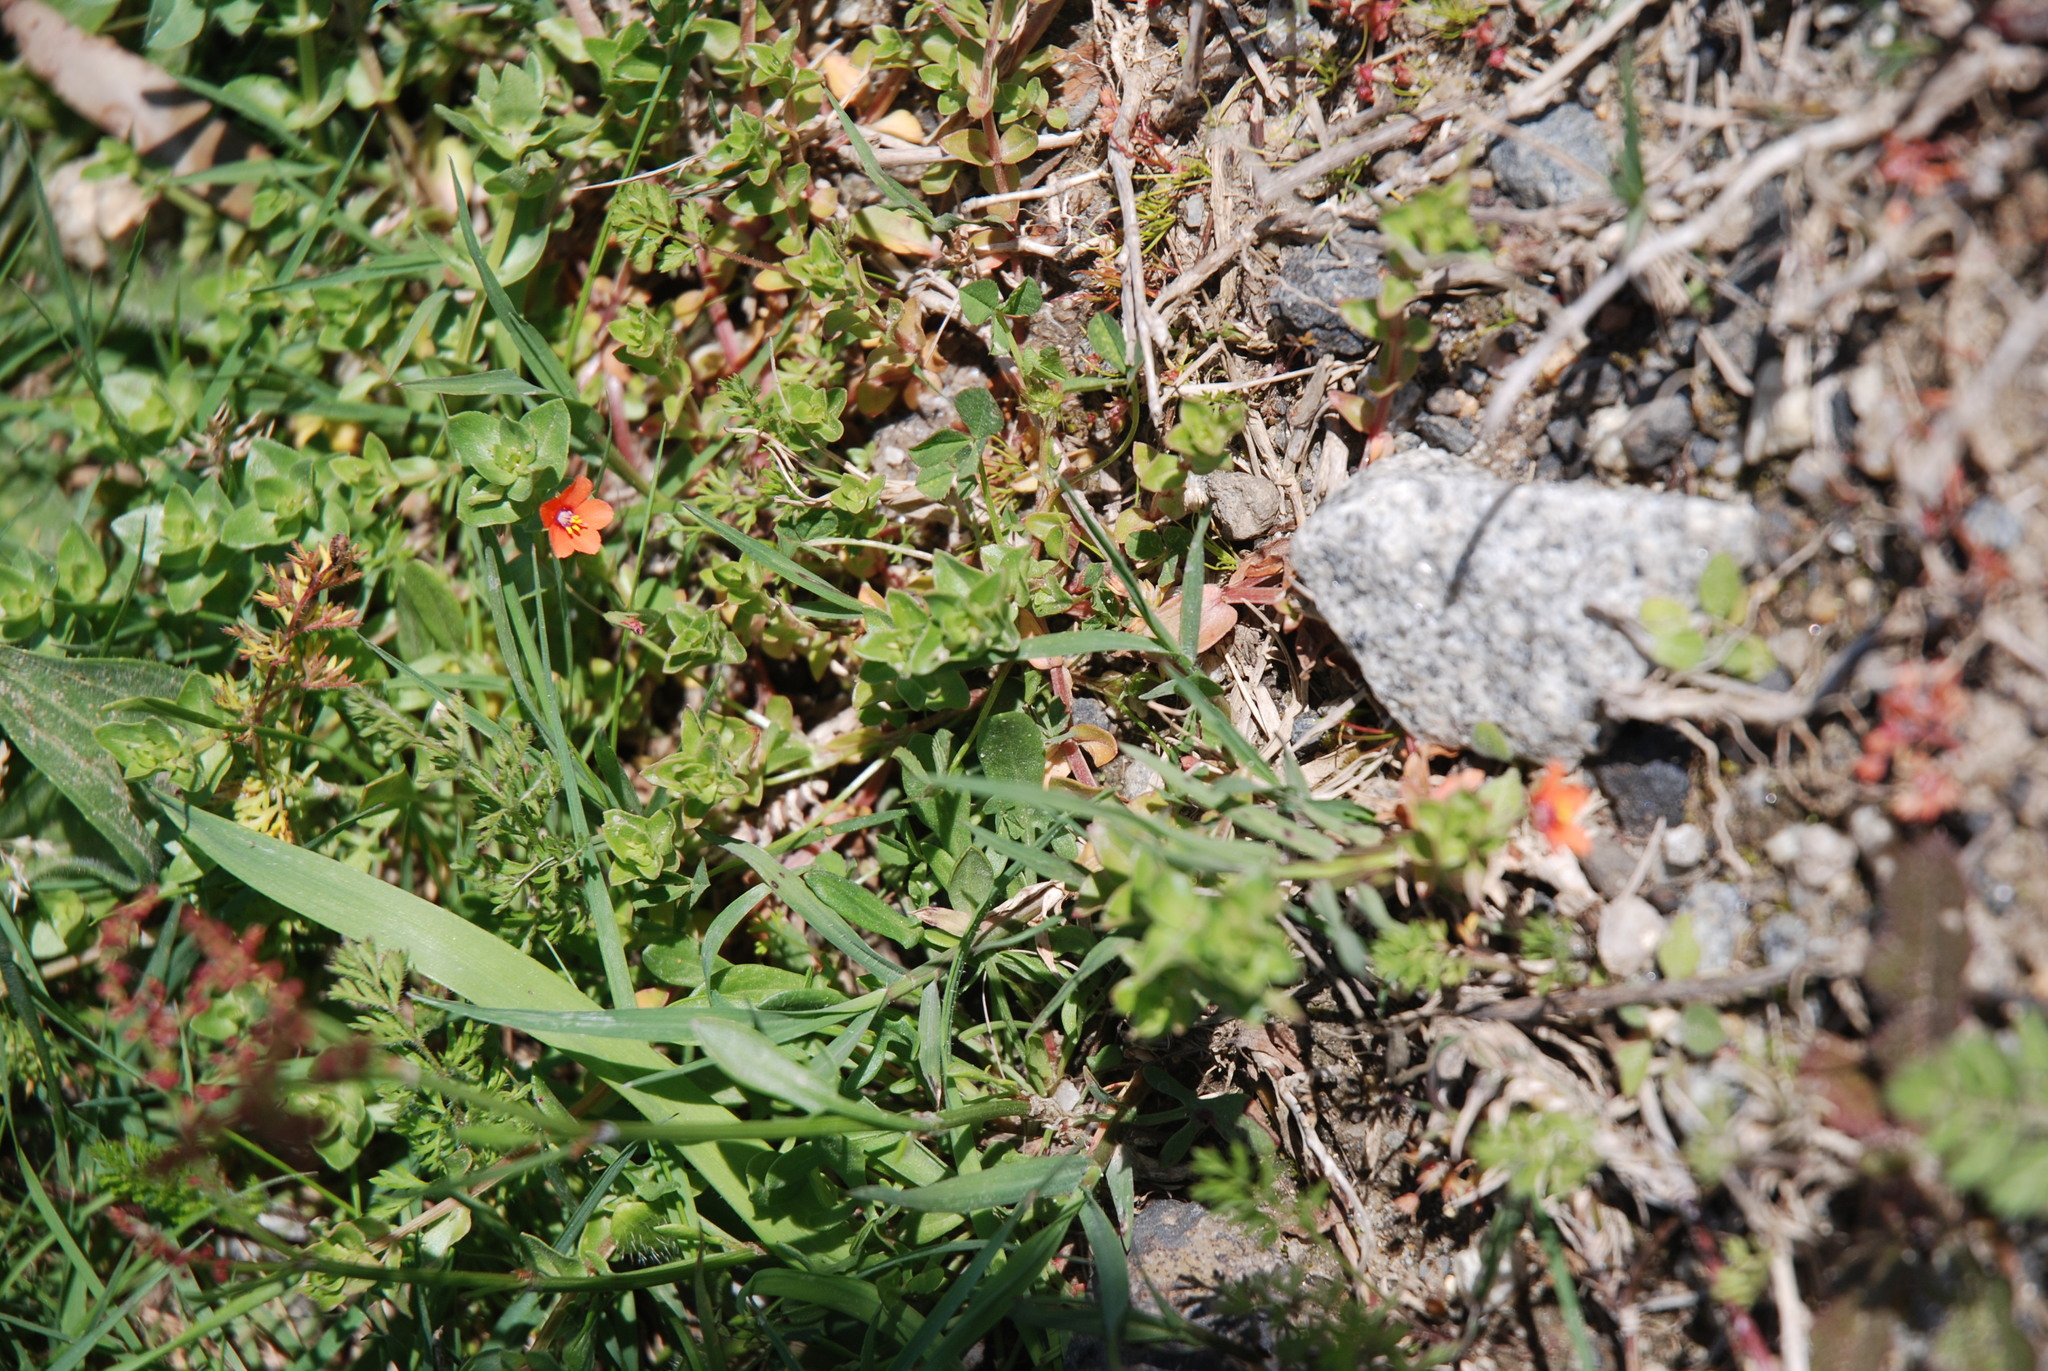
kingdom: Plantae
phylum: Tracheophyta
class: Magnoliopsida
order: Ericales
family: Primulaceae
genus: Lysimachia
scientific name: Lysimachia arvensis
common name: Scarlet pimpernel
